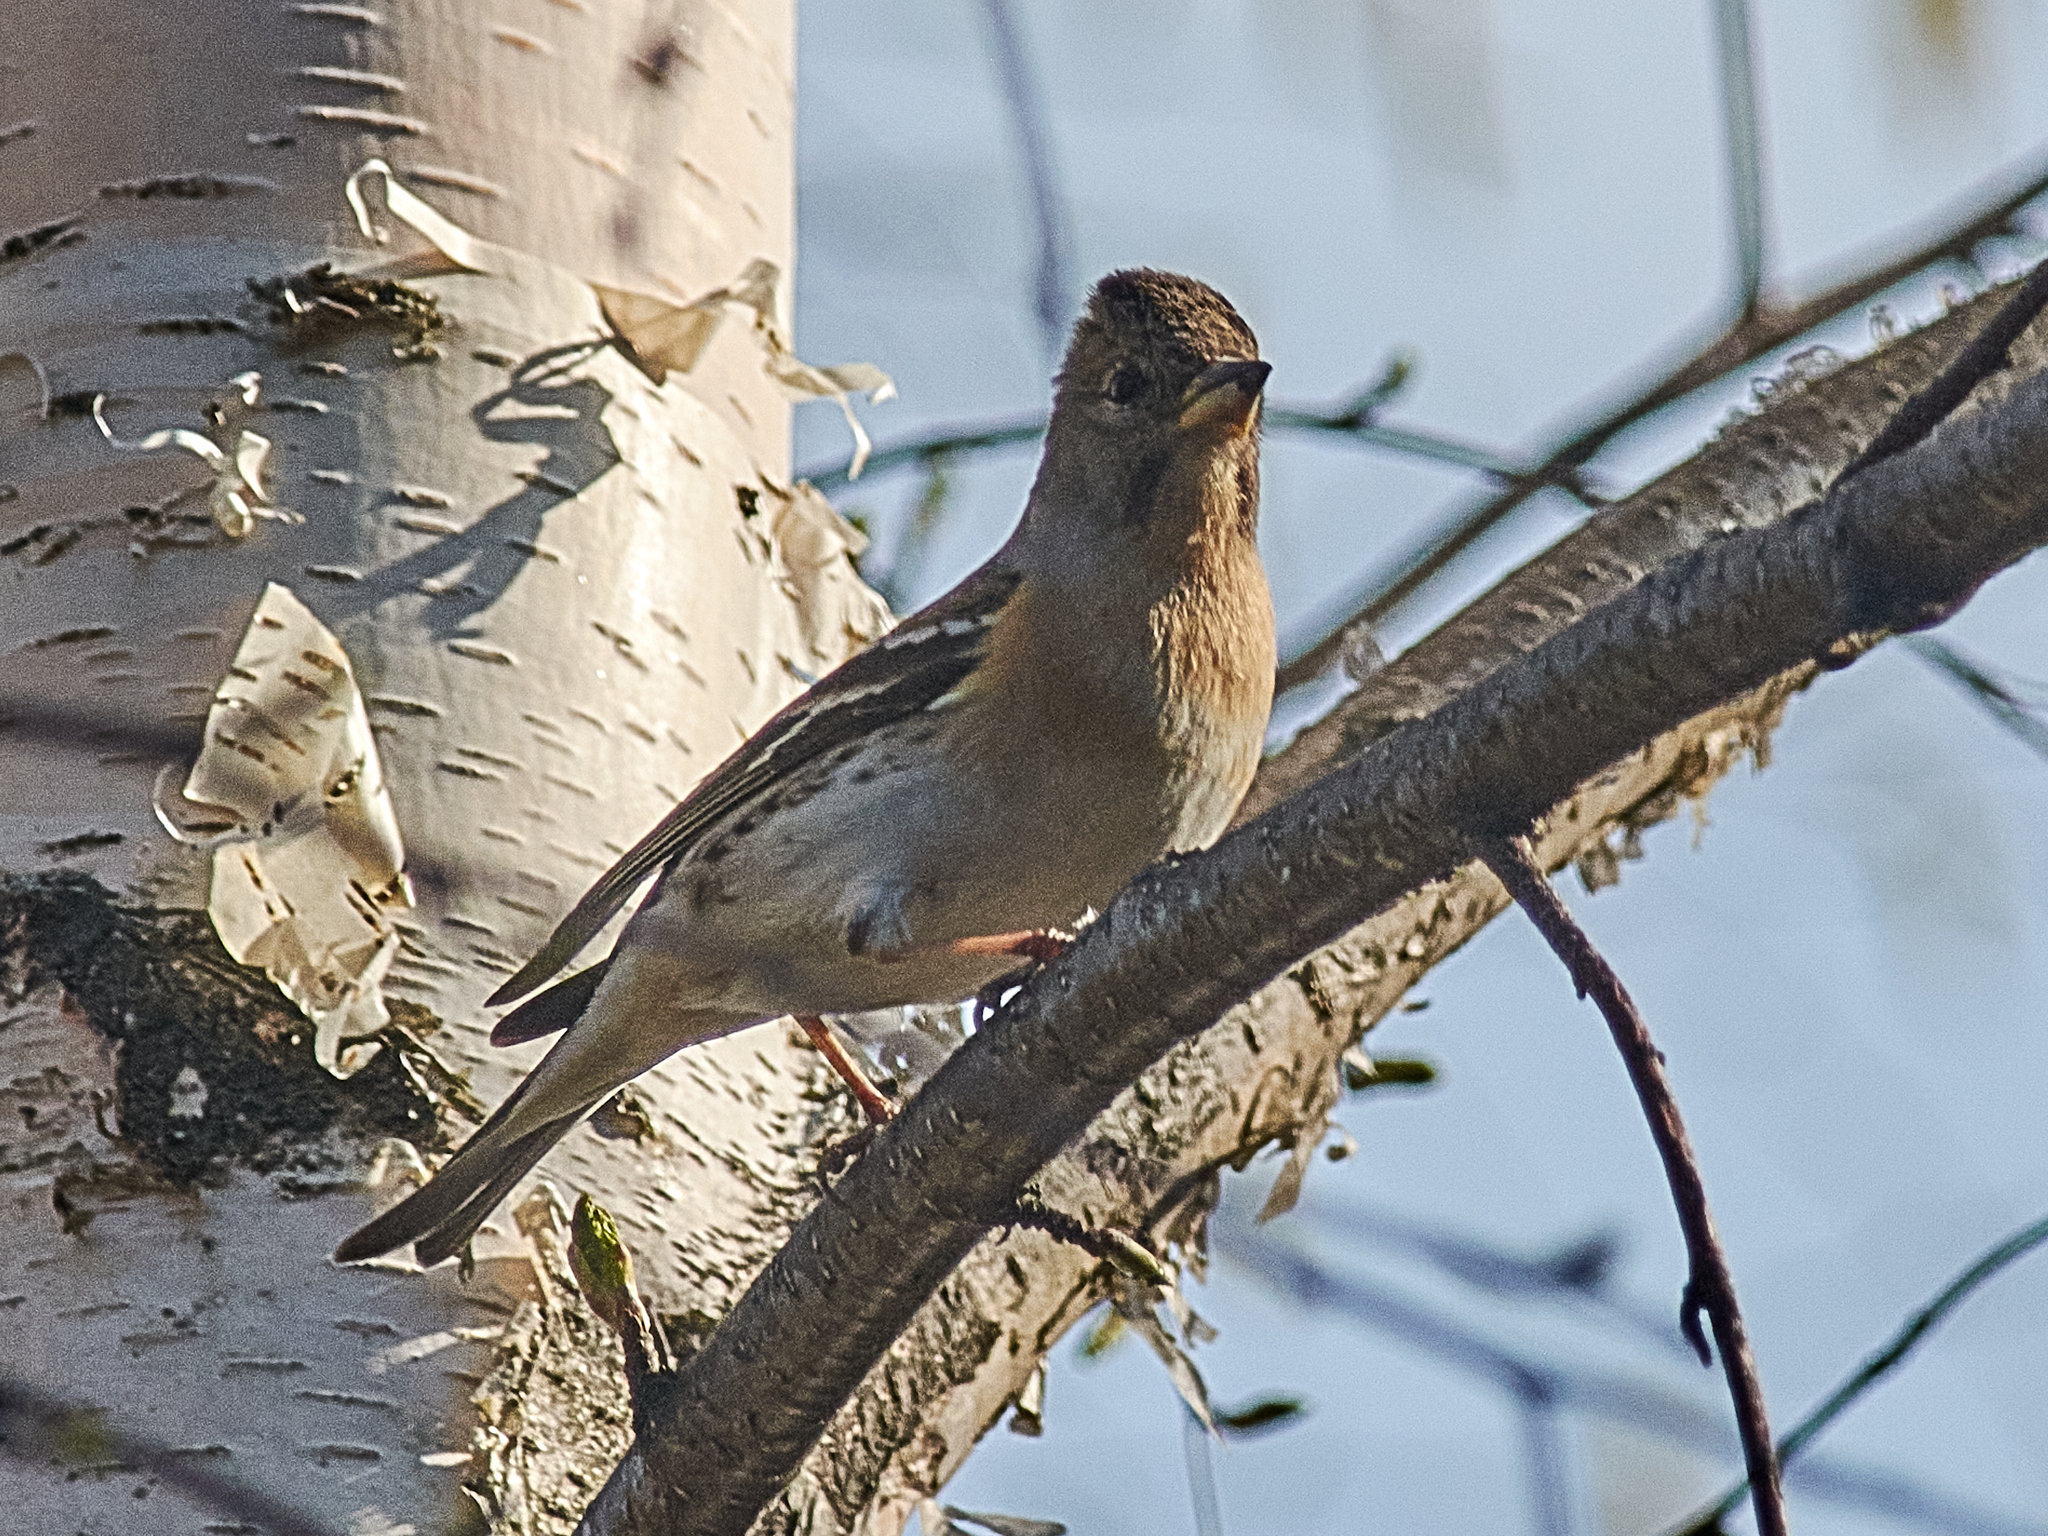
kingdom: Animalia
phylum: Chordata
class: Aves
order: Passeriformes
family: Fringillidae
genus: Fringilla
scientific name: Fringilla montifringilla
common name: Brambling
